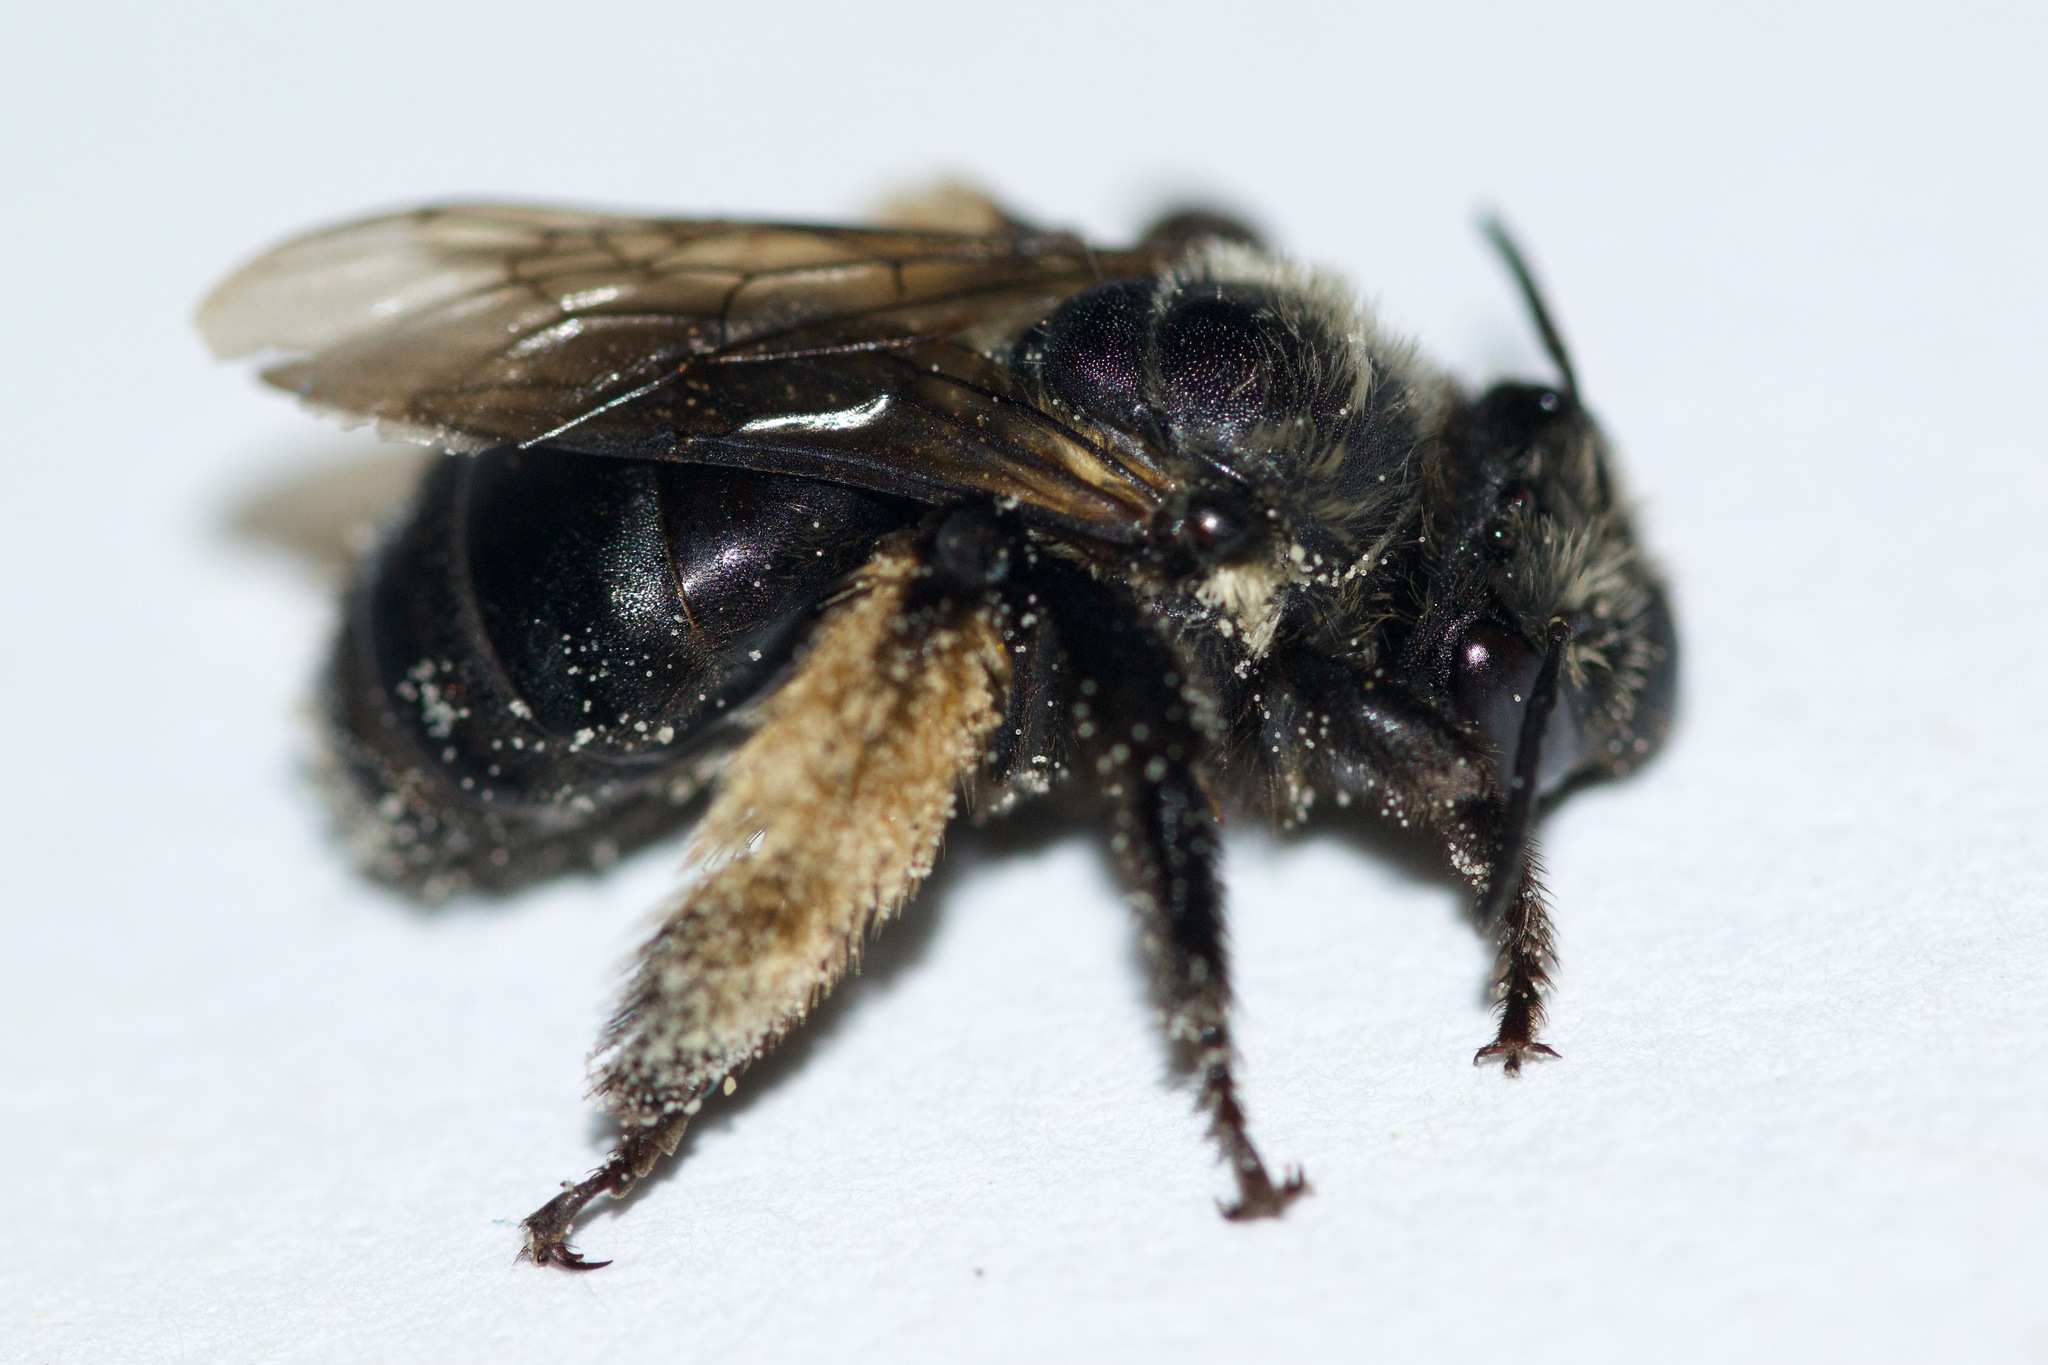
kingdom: Animalia
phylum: Arthropoda
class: Insecta
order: Hymenoptera
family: Apidae
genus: Melissodes
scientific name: Melissodes desponsus
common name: Thistle long-horned bee
